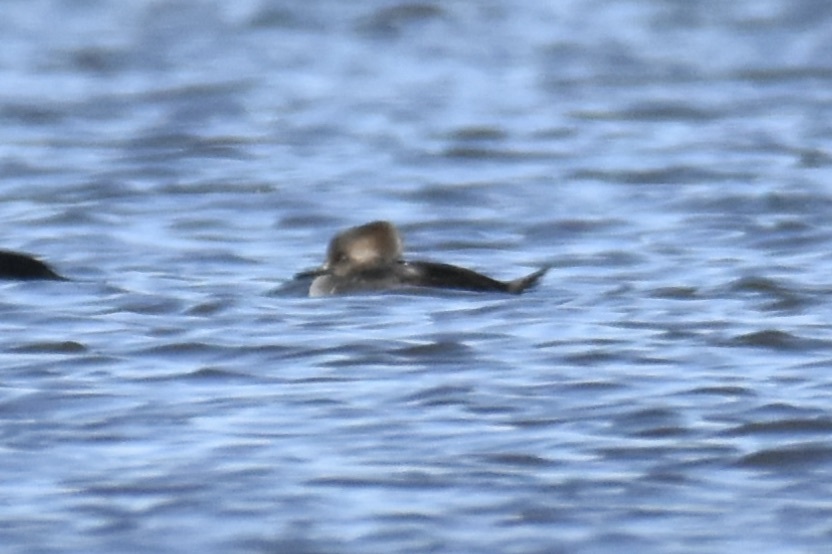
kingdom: Animalia
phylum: Chordata
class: Aves
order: Anseriformes
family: Anatidae
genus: Lophodytes
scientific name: Lophodytes cucullatus
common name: Hooded merganser
